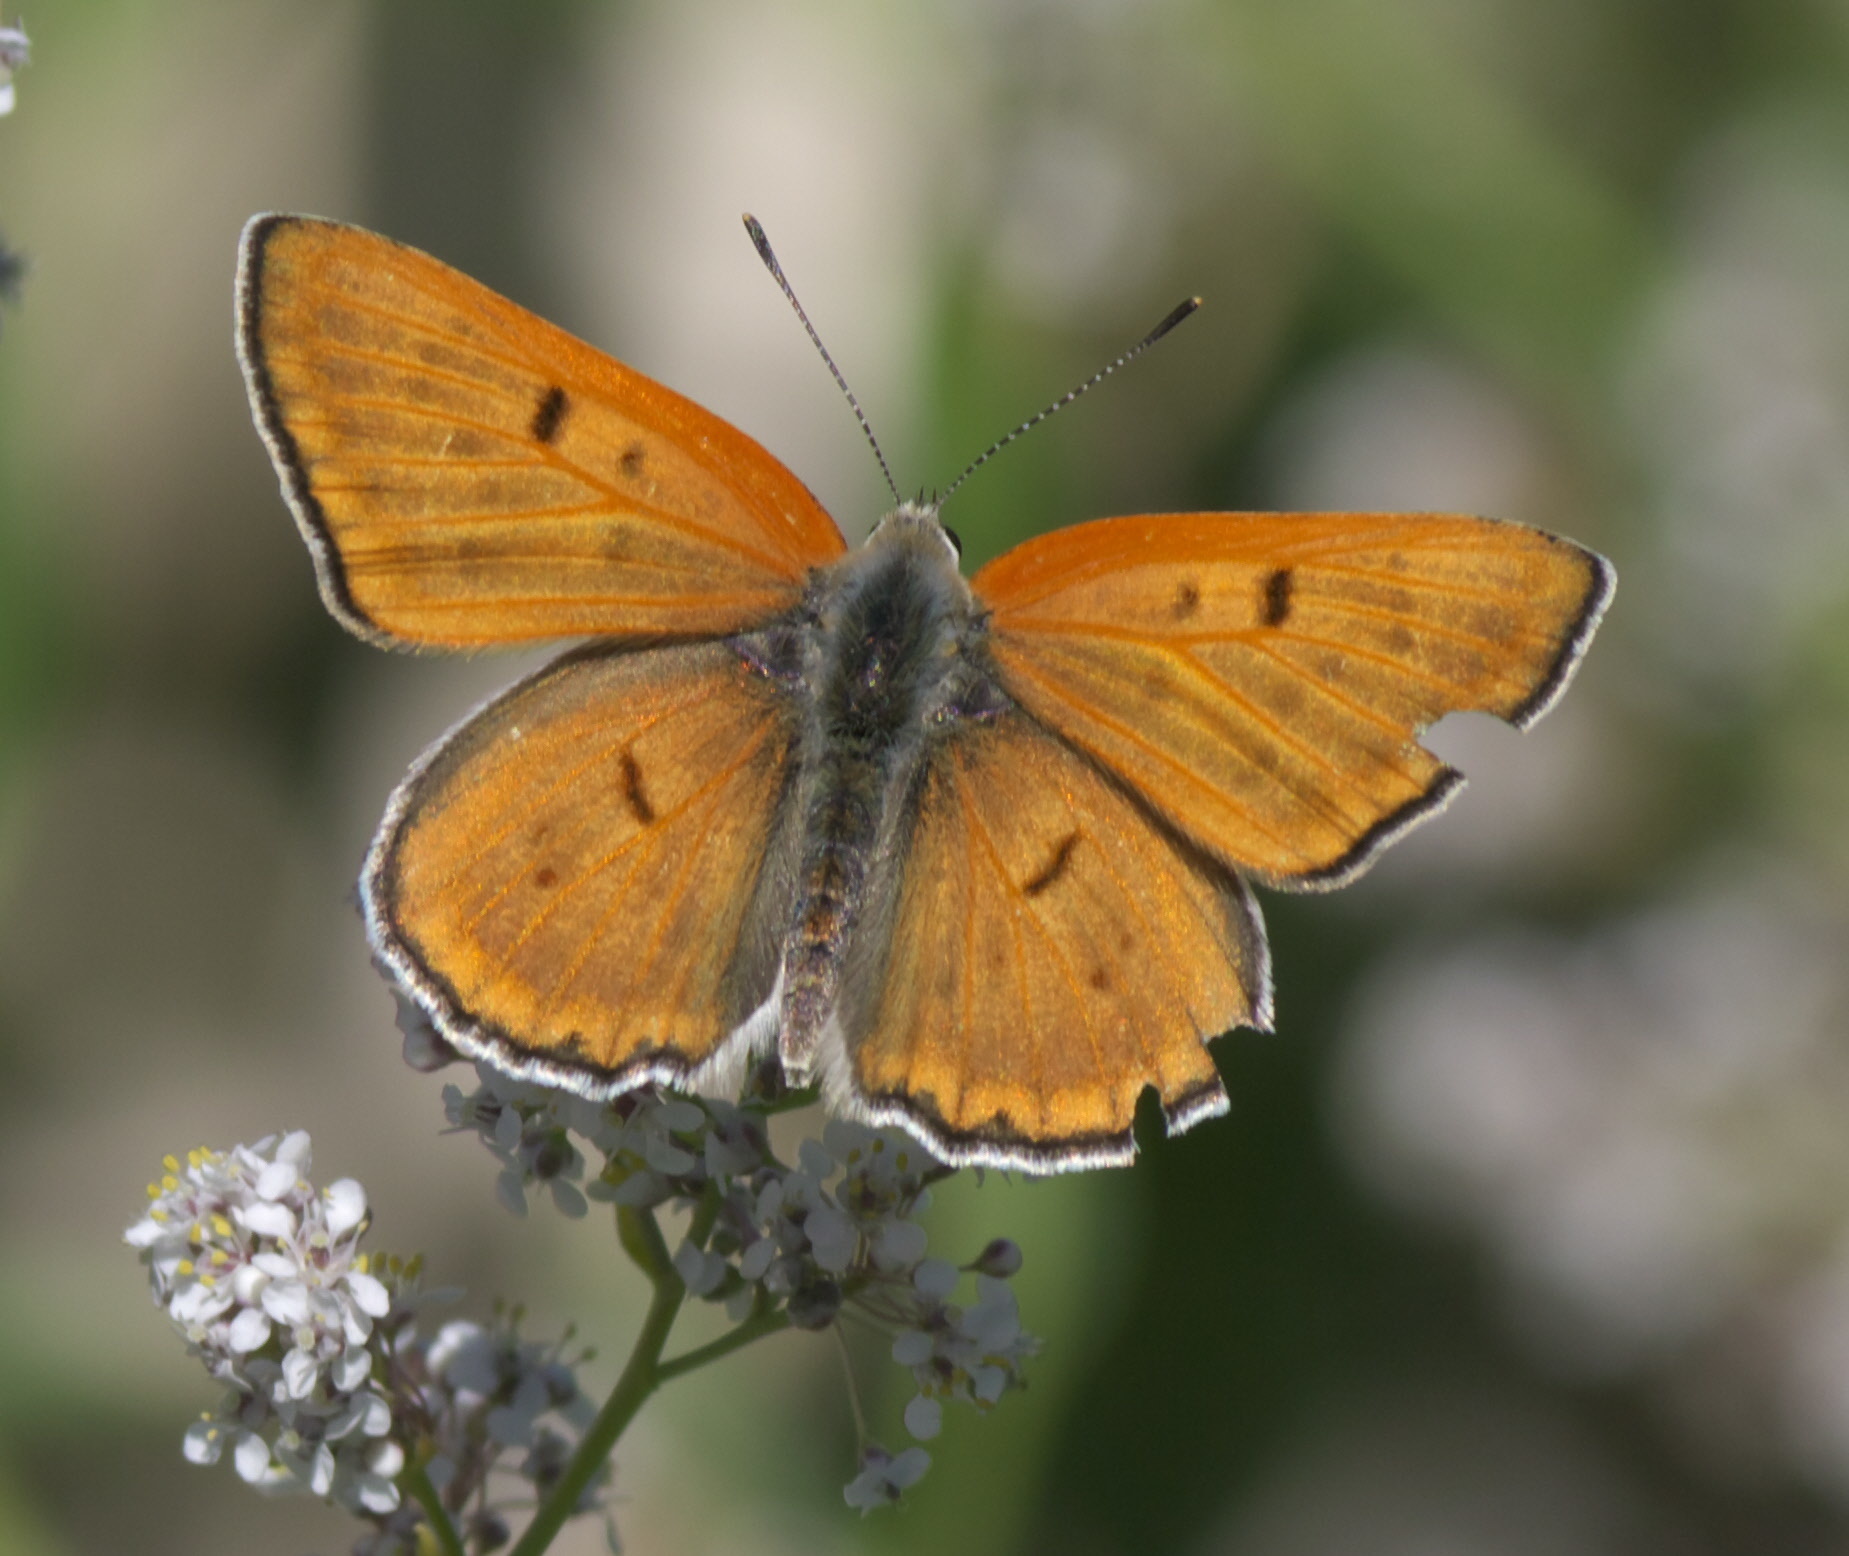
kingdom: Animalia
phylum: Arthropoda
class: Insecta
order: Lepidoptera
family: Lycaenidae
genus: Tharsalea
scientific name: Tharsalea rubidus
